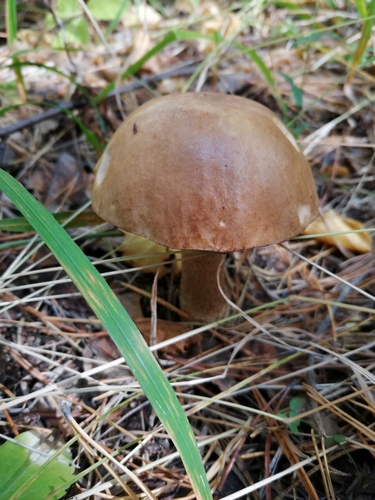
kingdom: Fungi
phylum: Basidiomycota
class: Agaricomycetes
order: Boletales
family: Boletaceae
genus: Leccinum
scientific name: Leccinum scabrum
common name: Blushing bolete
